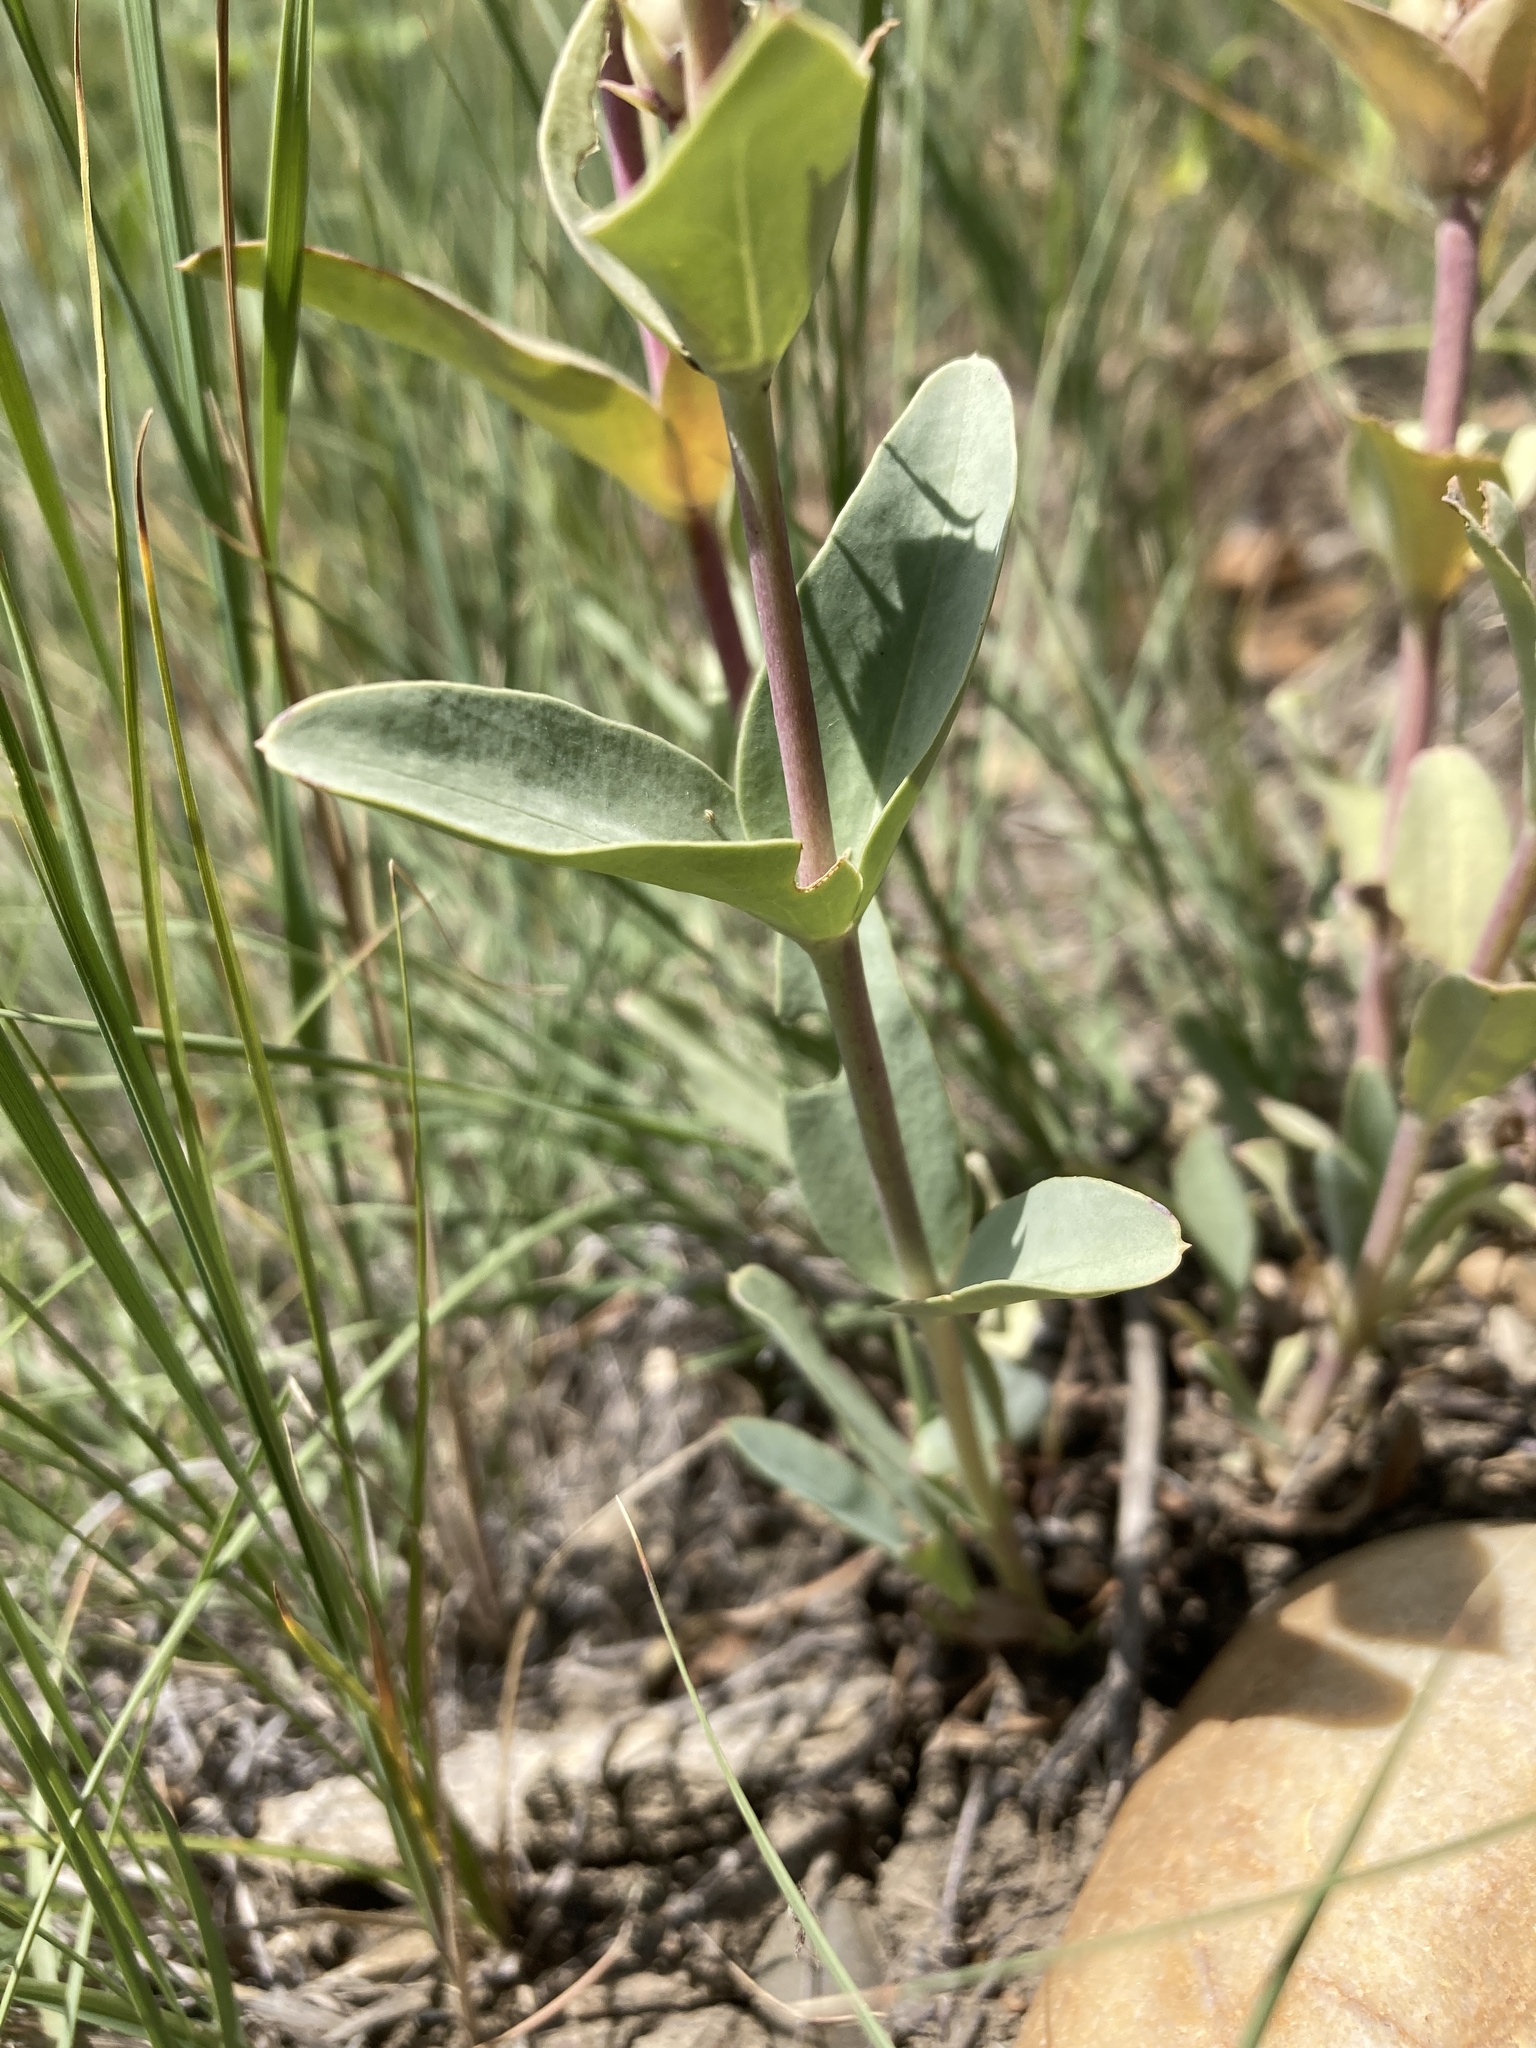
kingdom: Plantae
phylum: Tracheophyta
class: Magnoliopsida
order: Lamiales
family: Plantaginaceae
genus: Penstemon
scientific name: Penstemon nitidus
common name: Shining penstemon
